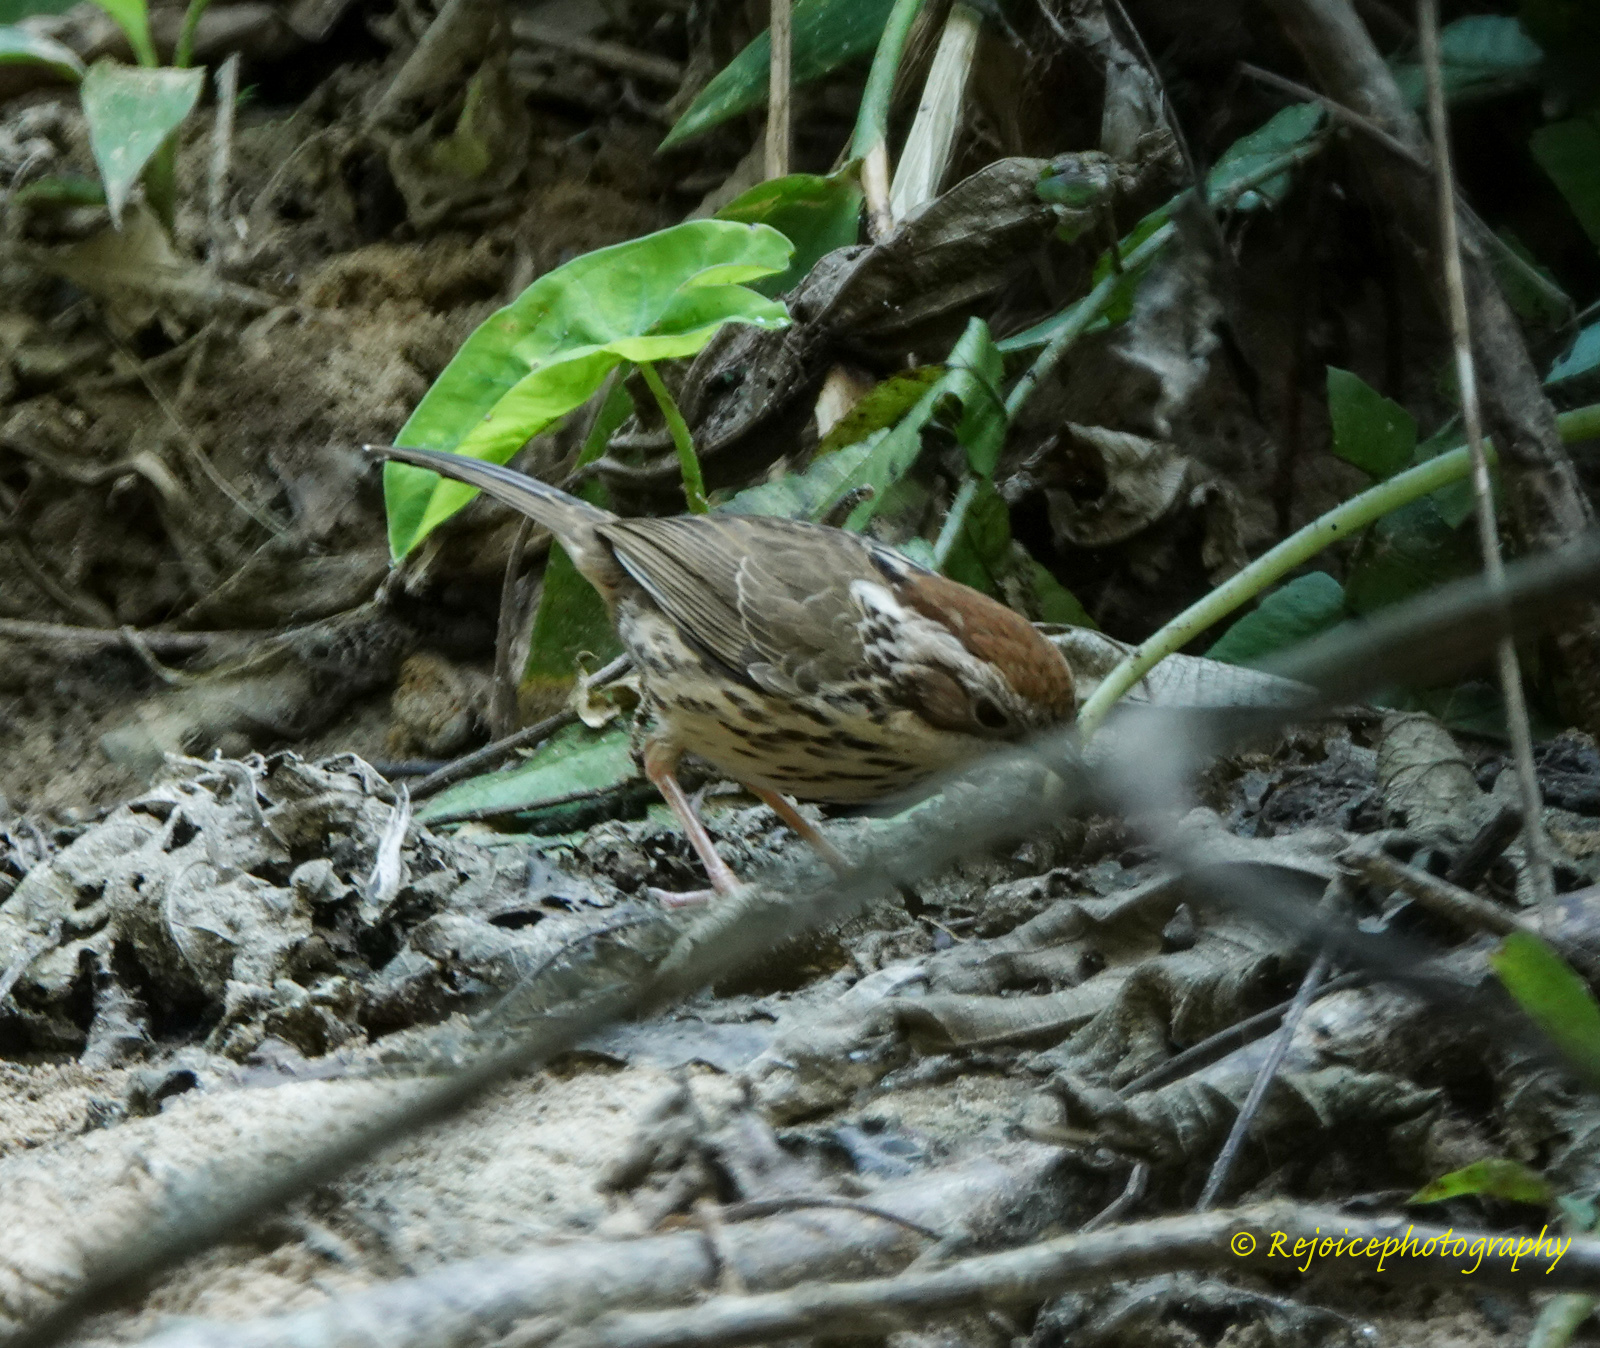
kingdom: Animalia
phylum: Chordata
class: Aves
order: Passeriformes
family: Pellorneidae
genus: Pellorneum
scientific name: Pellorneum ruficeps
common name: Puff-throated babbler
